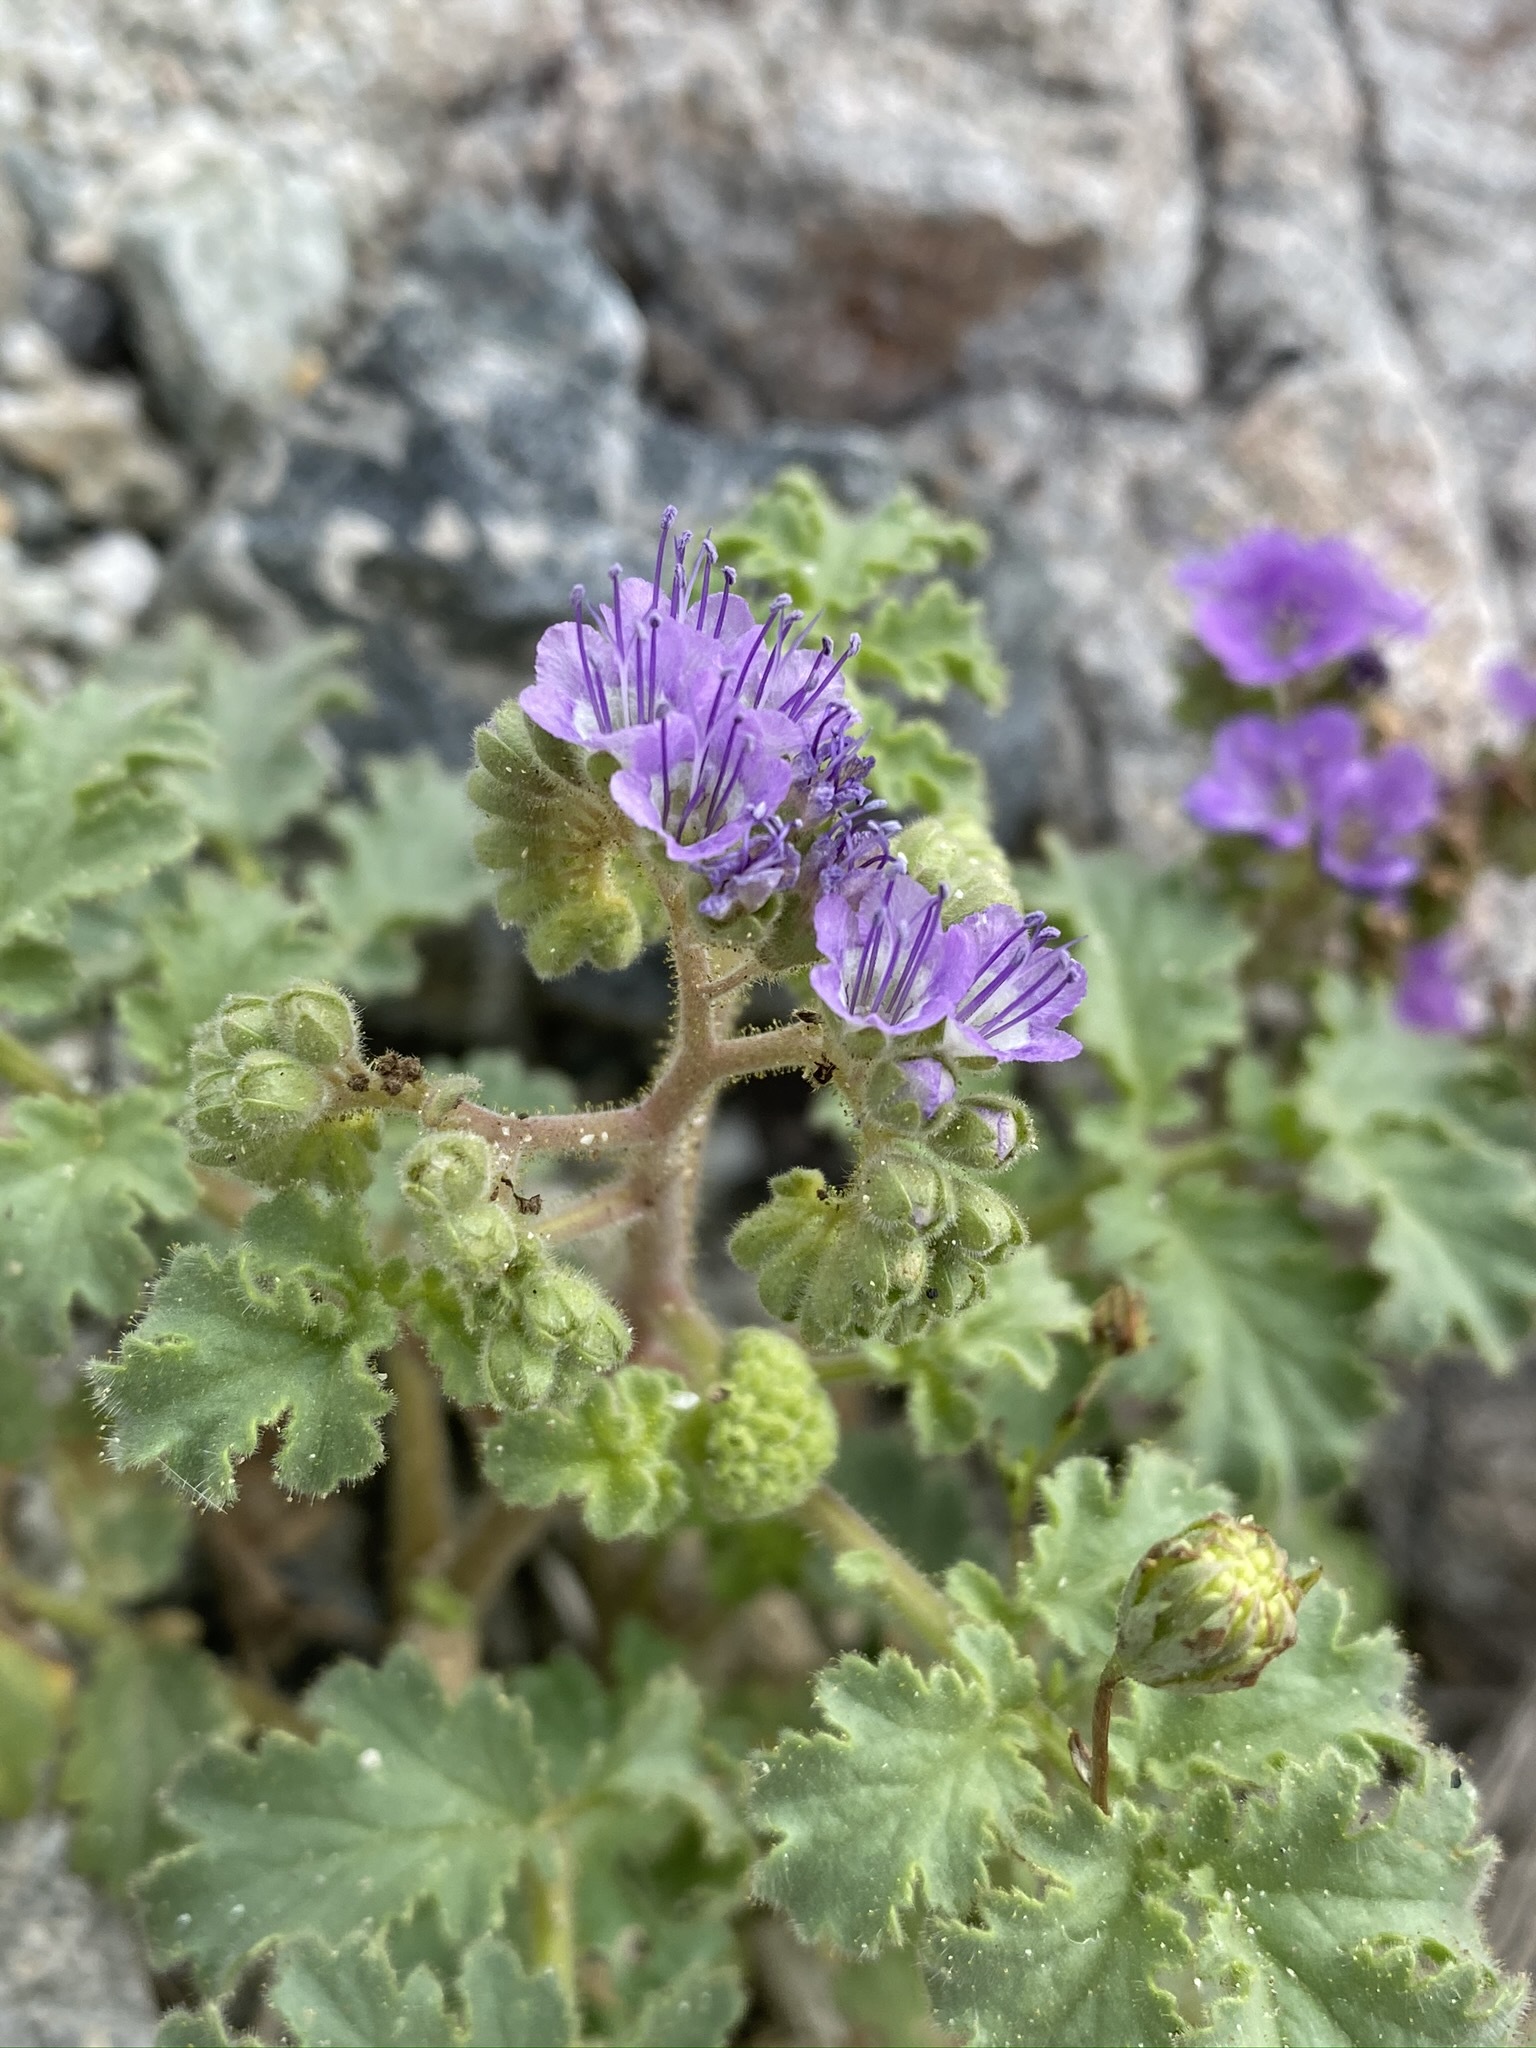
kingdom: Plantae
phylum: Tracheophyta
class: Magnoliopsida
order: Boraginales
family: Hydrophyllaceae
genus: Phacelia
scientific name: Phacelia pedicellata
